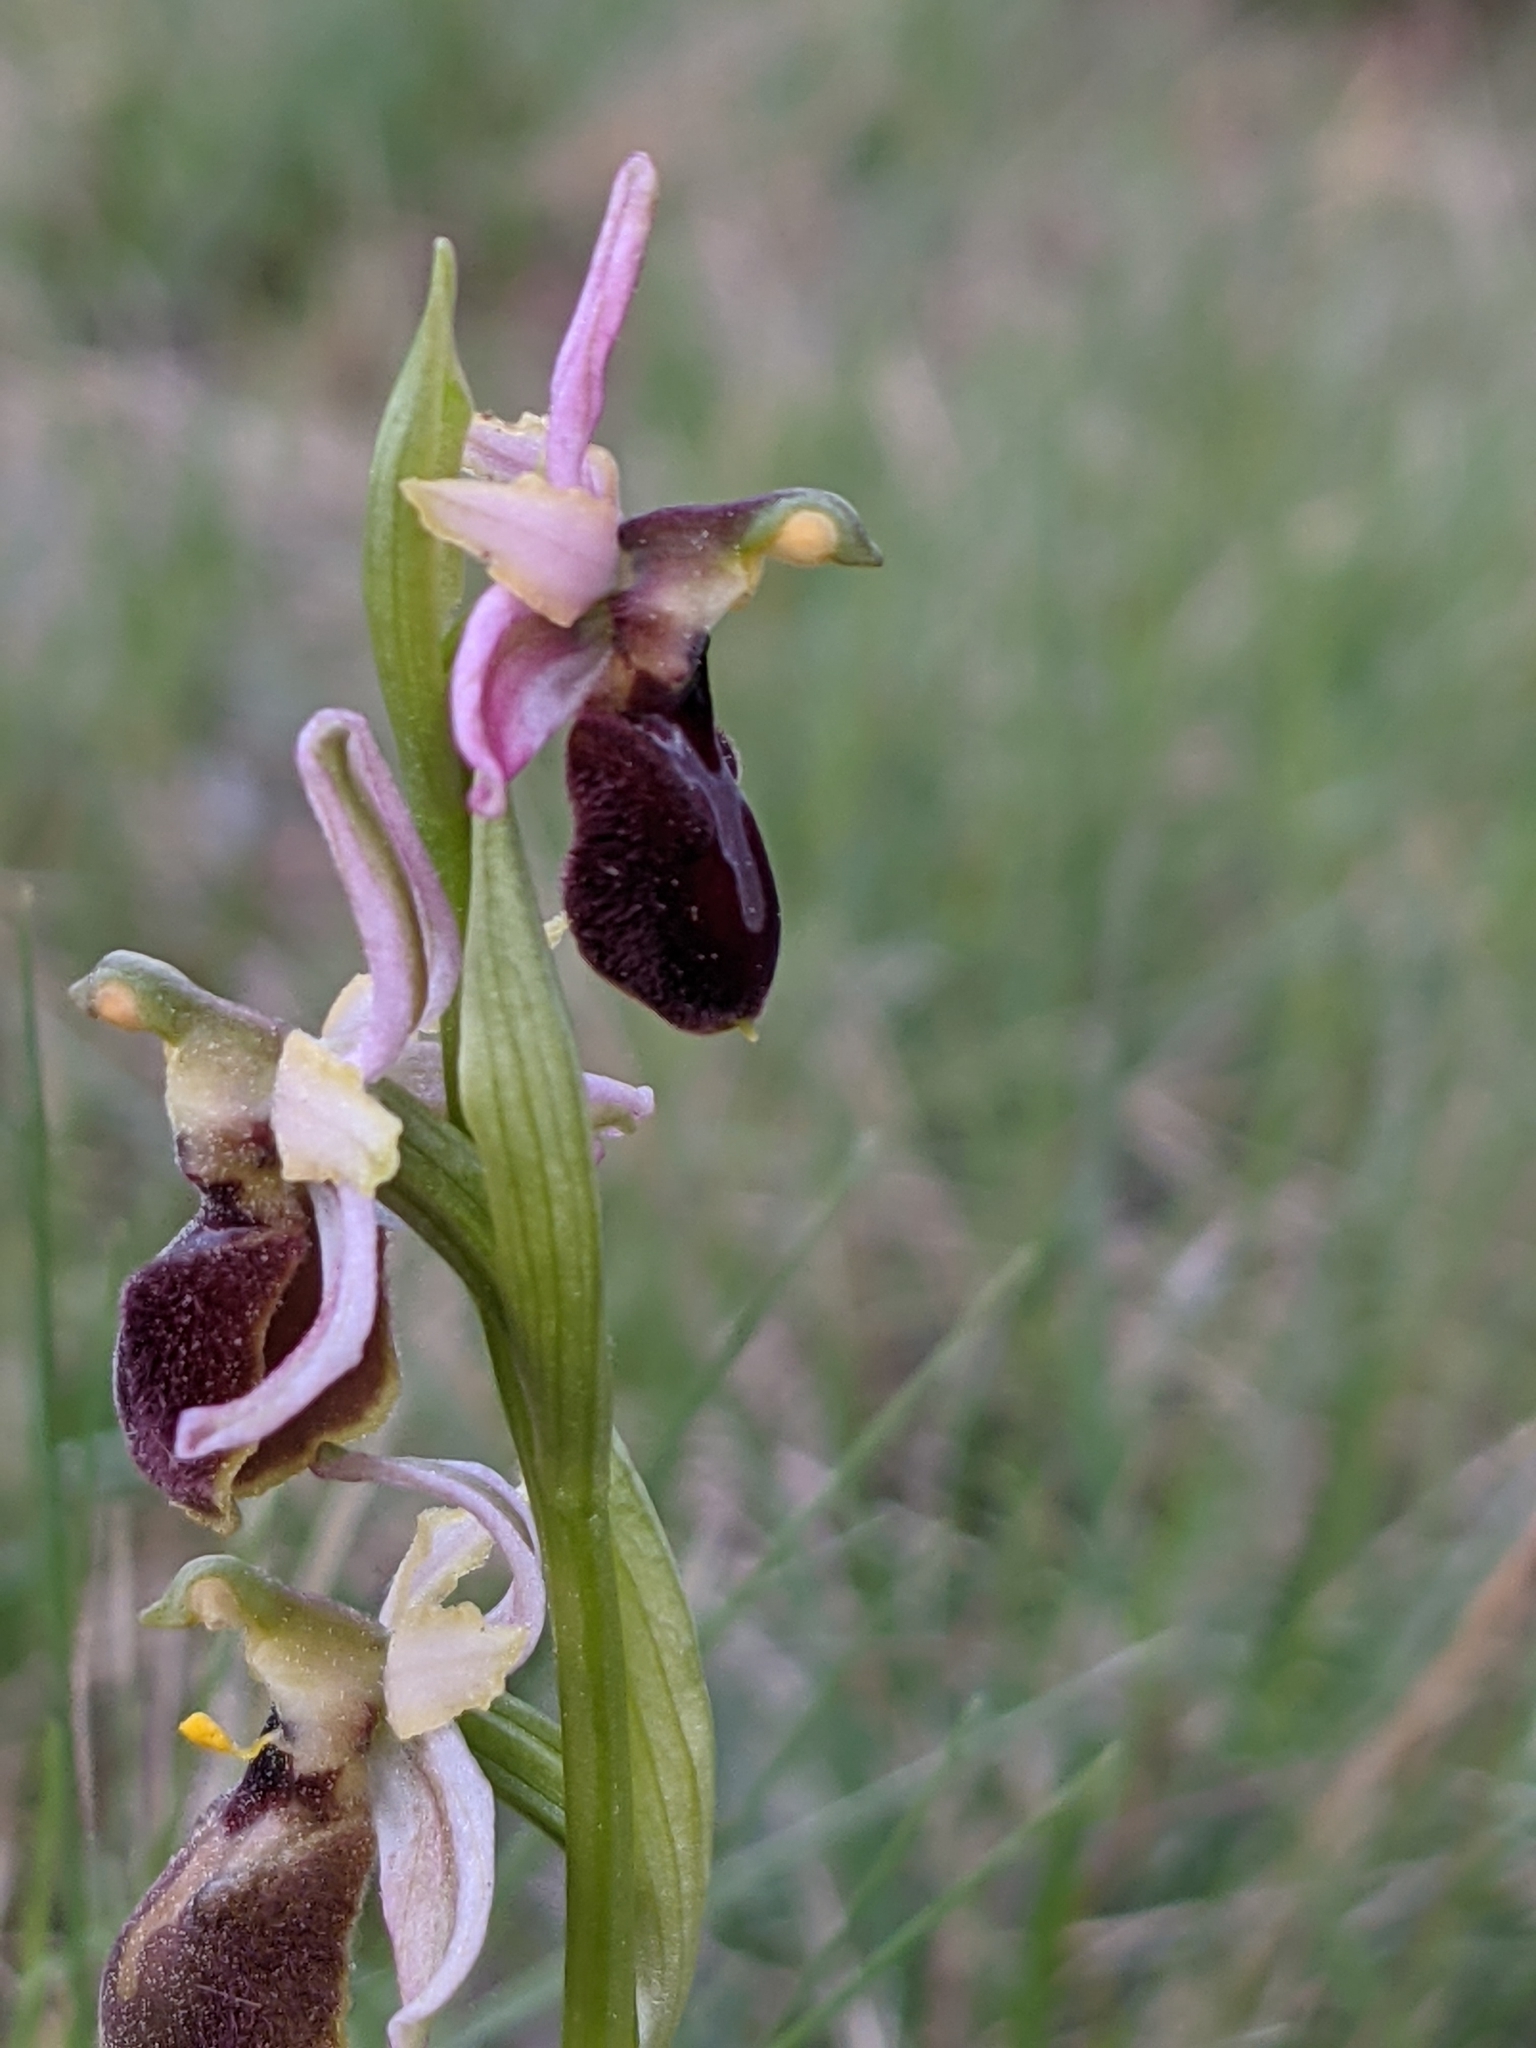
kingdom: Plantae
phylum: Tracheophyta
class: Liliopsida
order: Asparagales
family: Orchidaceae
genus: Ophrys
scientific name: Ophrys arachnitiformis
